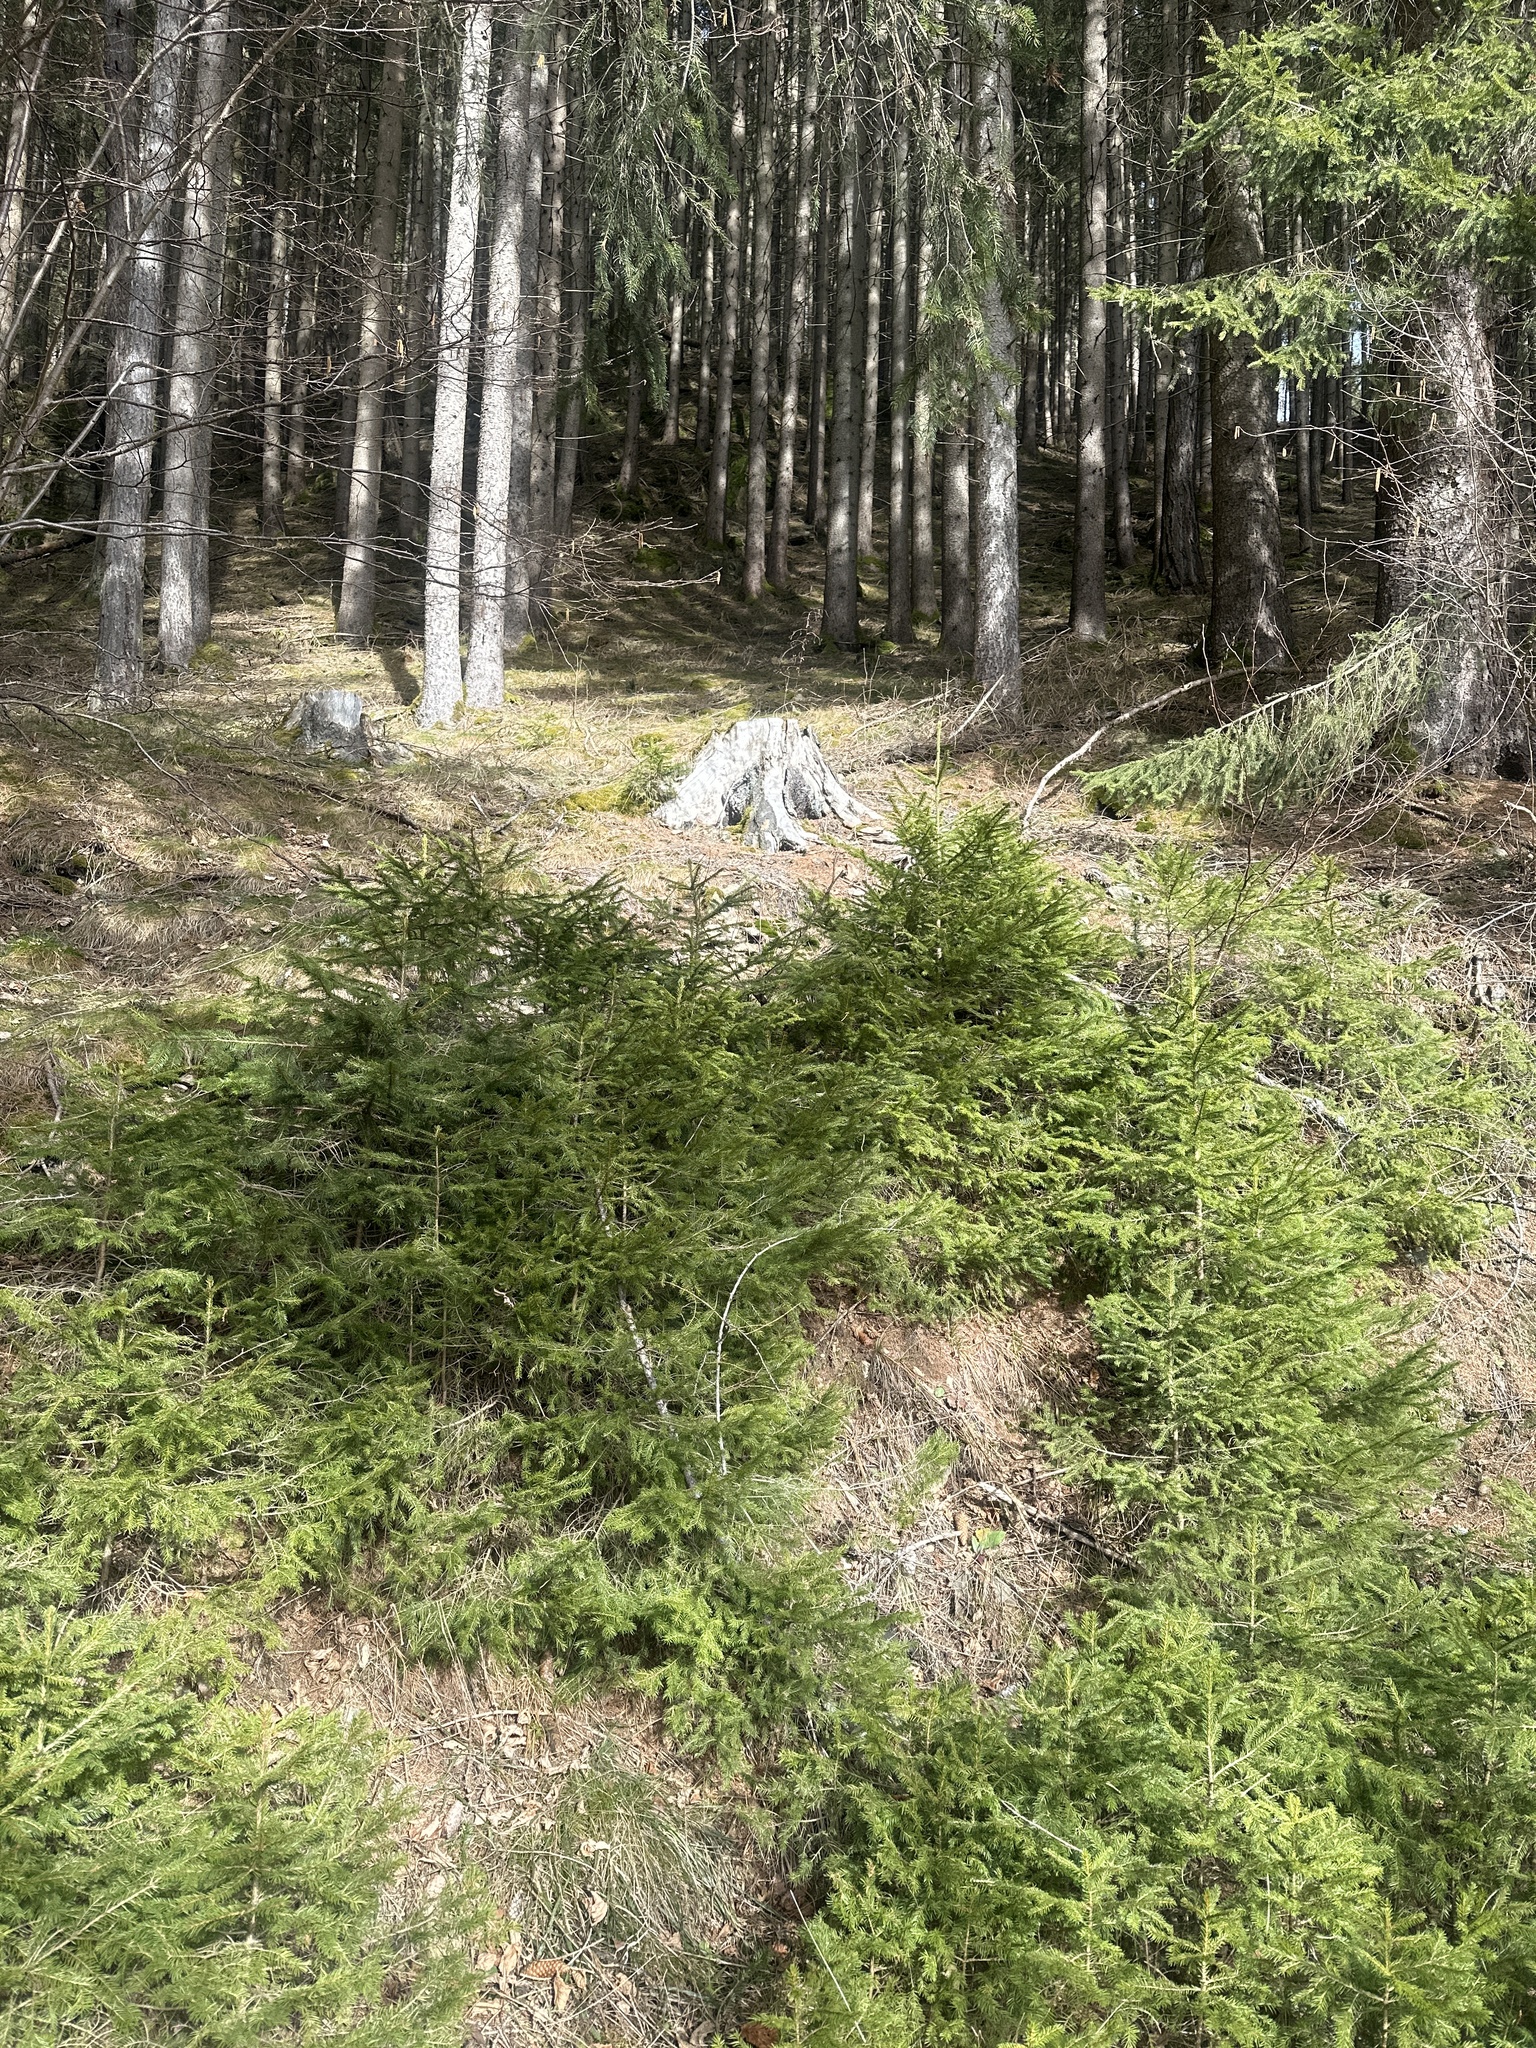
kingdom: Plantae
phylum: Tracheophyta
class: Pinopsida
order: Pinales
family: Pinaceae
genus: Picea
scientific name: Picea abies
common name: Norway spruce
